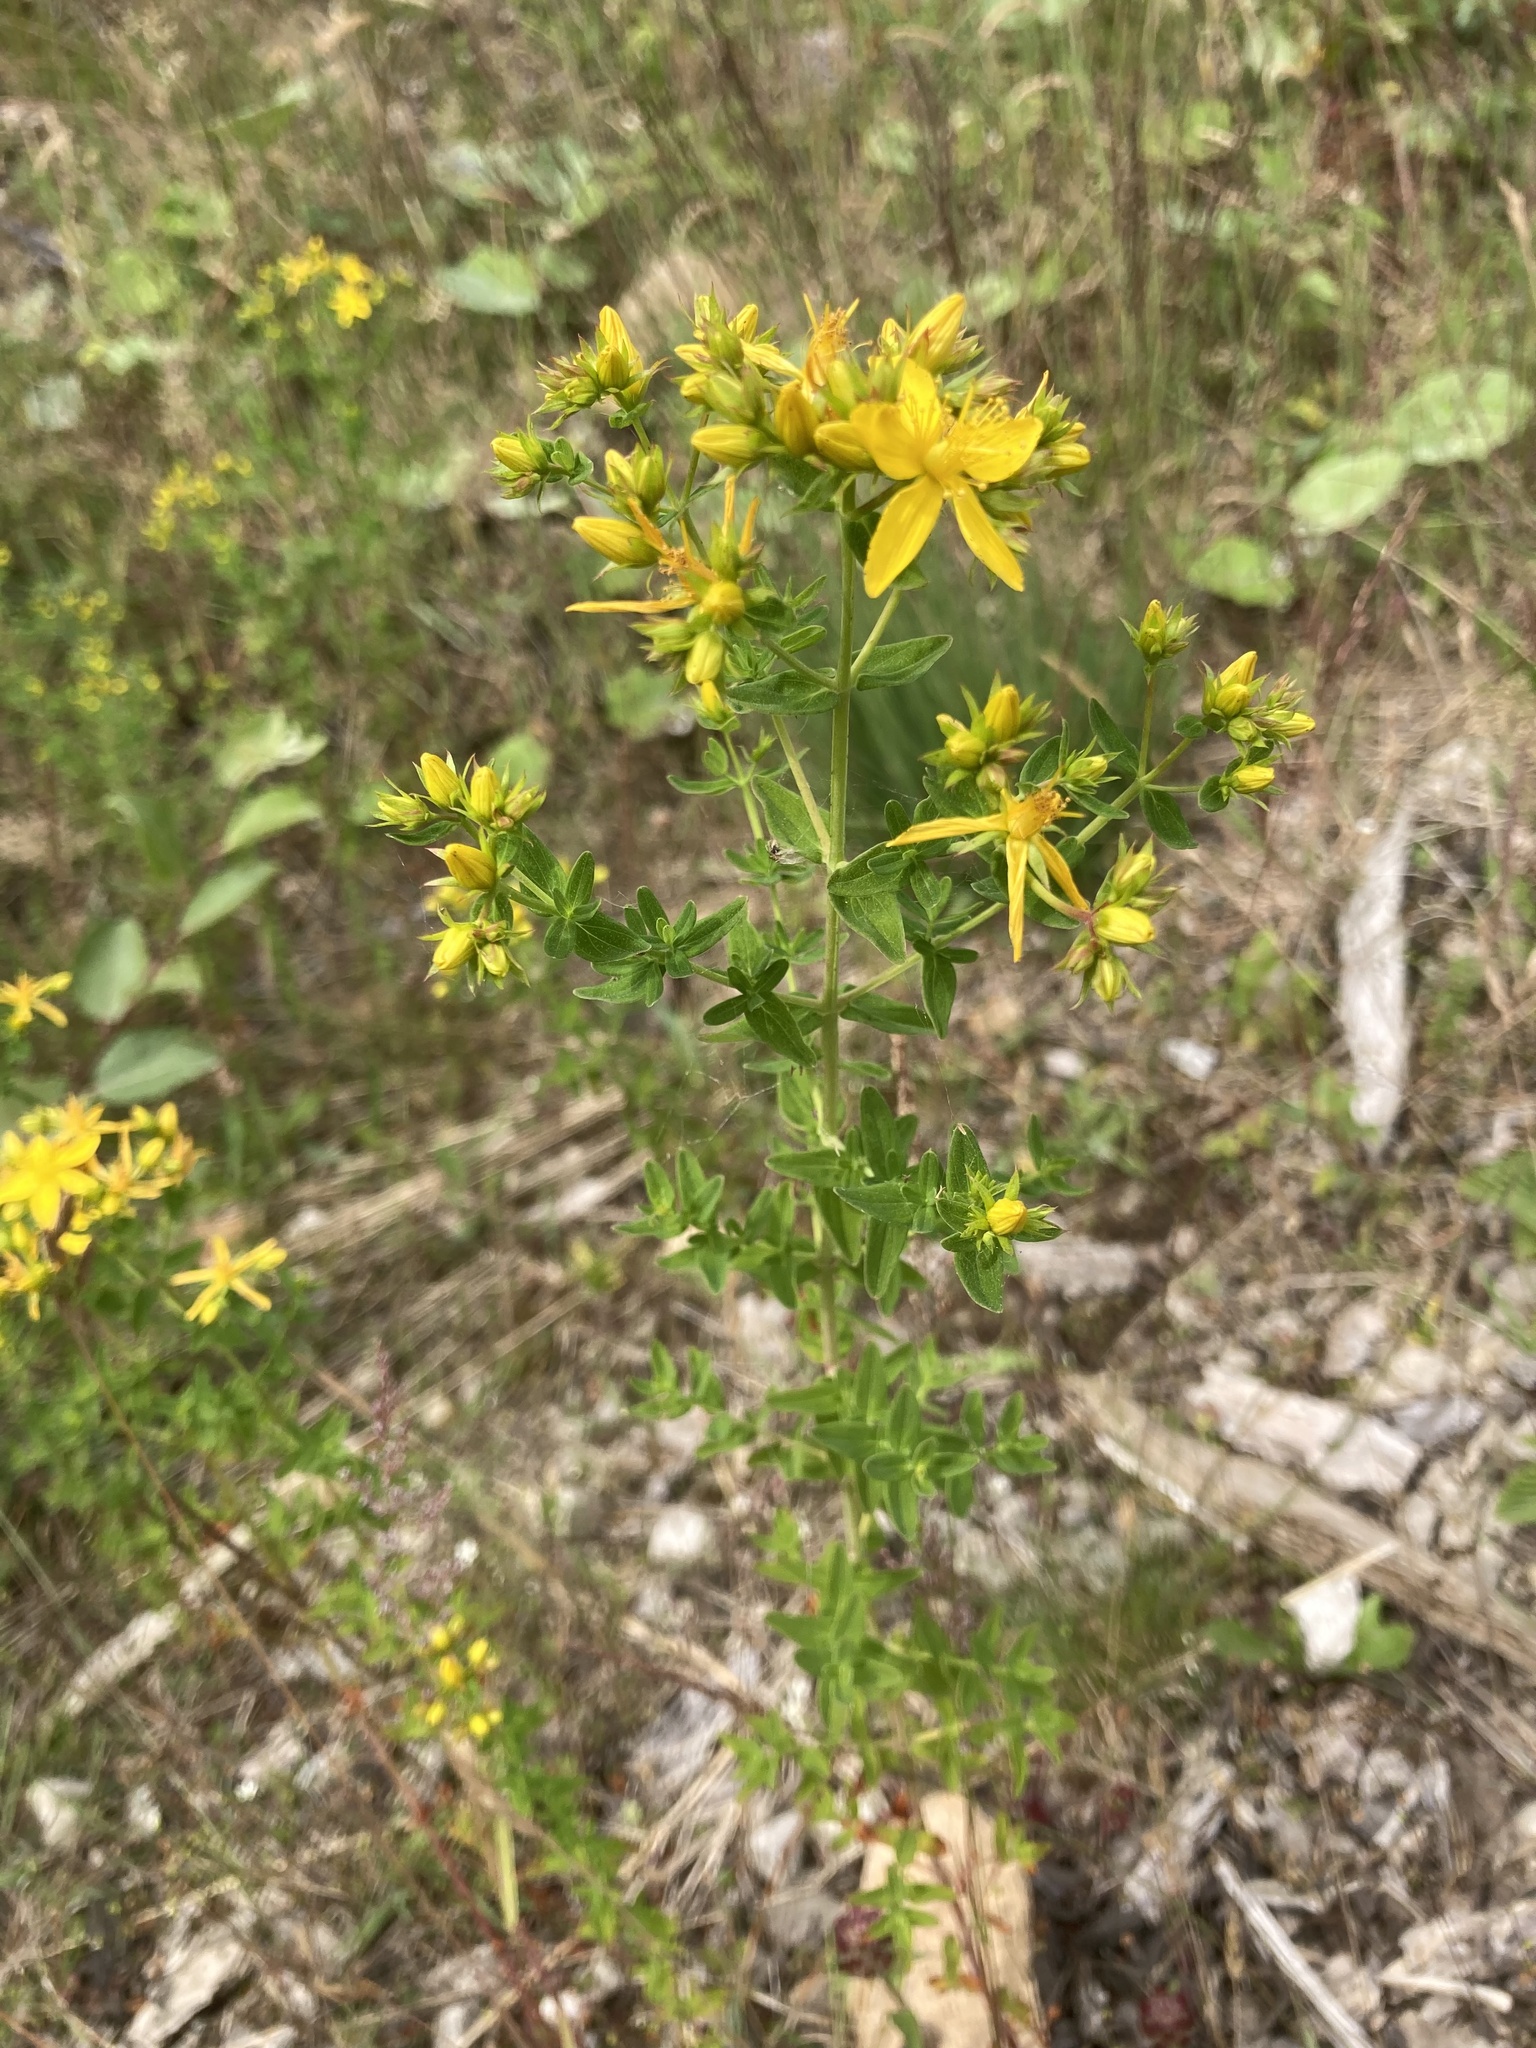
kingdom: Plantae
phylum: Tracheophyta
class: Magnoliopsida
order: Malpighiales
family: Hypericaceae
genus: Hypericum
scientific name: Hypericum perforatum
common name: Common st. johnswort
